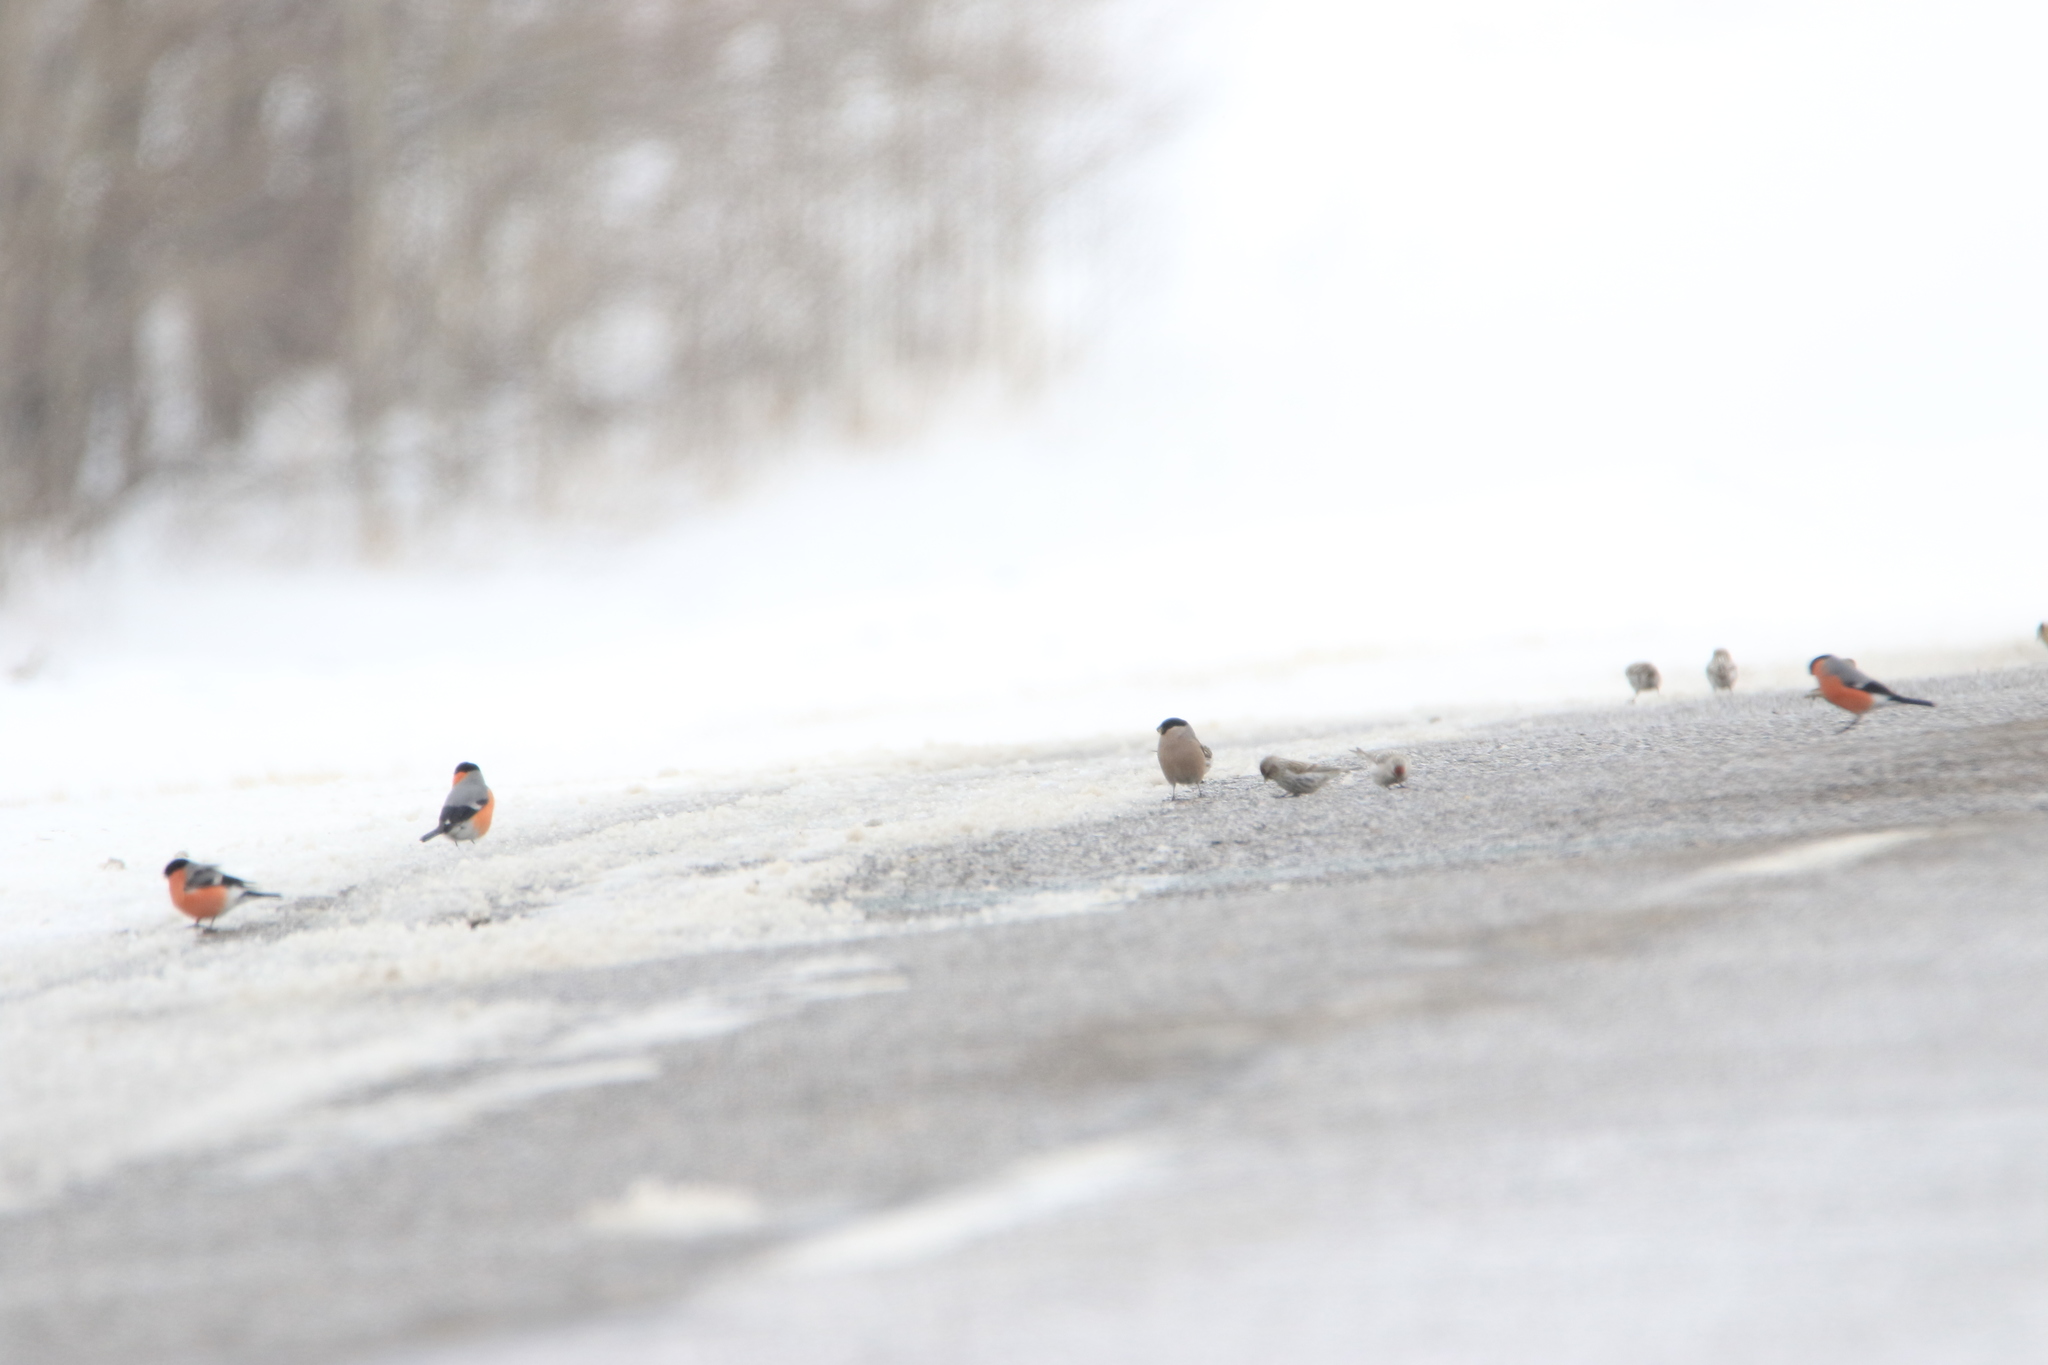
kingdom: Animalia
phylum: Chordata
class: Aves
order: Passeriformes
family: Fringillidae
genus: Pyrrhula
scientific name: Pyrrhula pyrrhula
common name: Eurasian bullfinch
